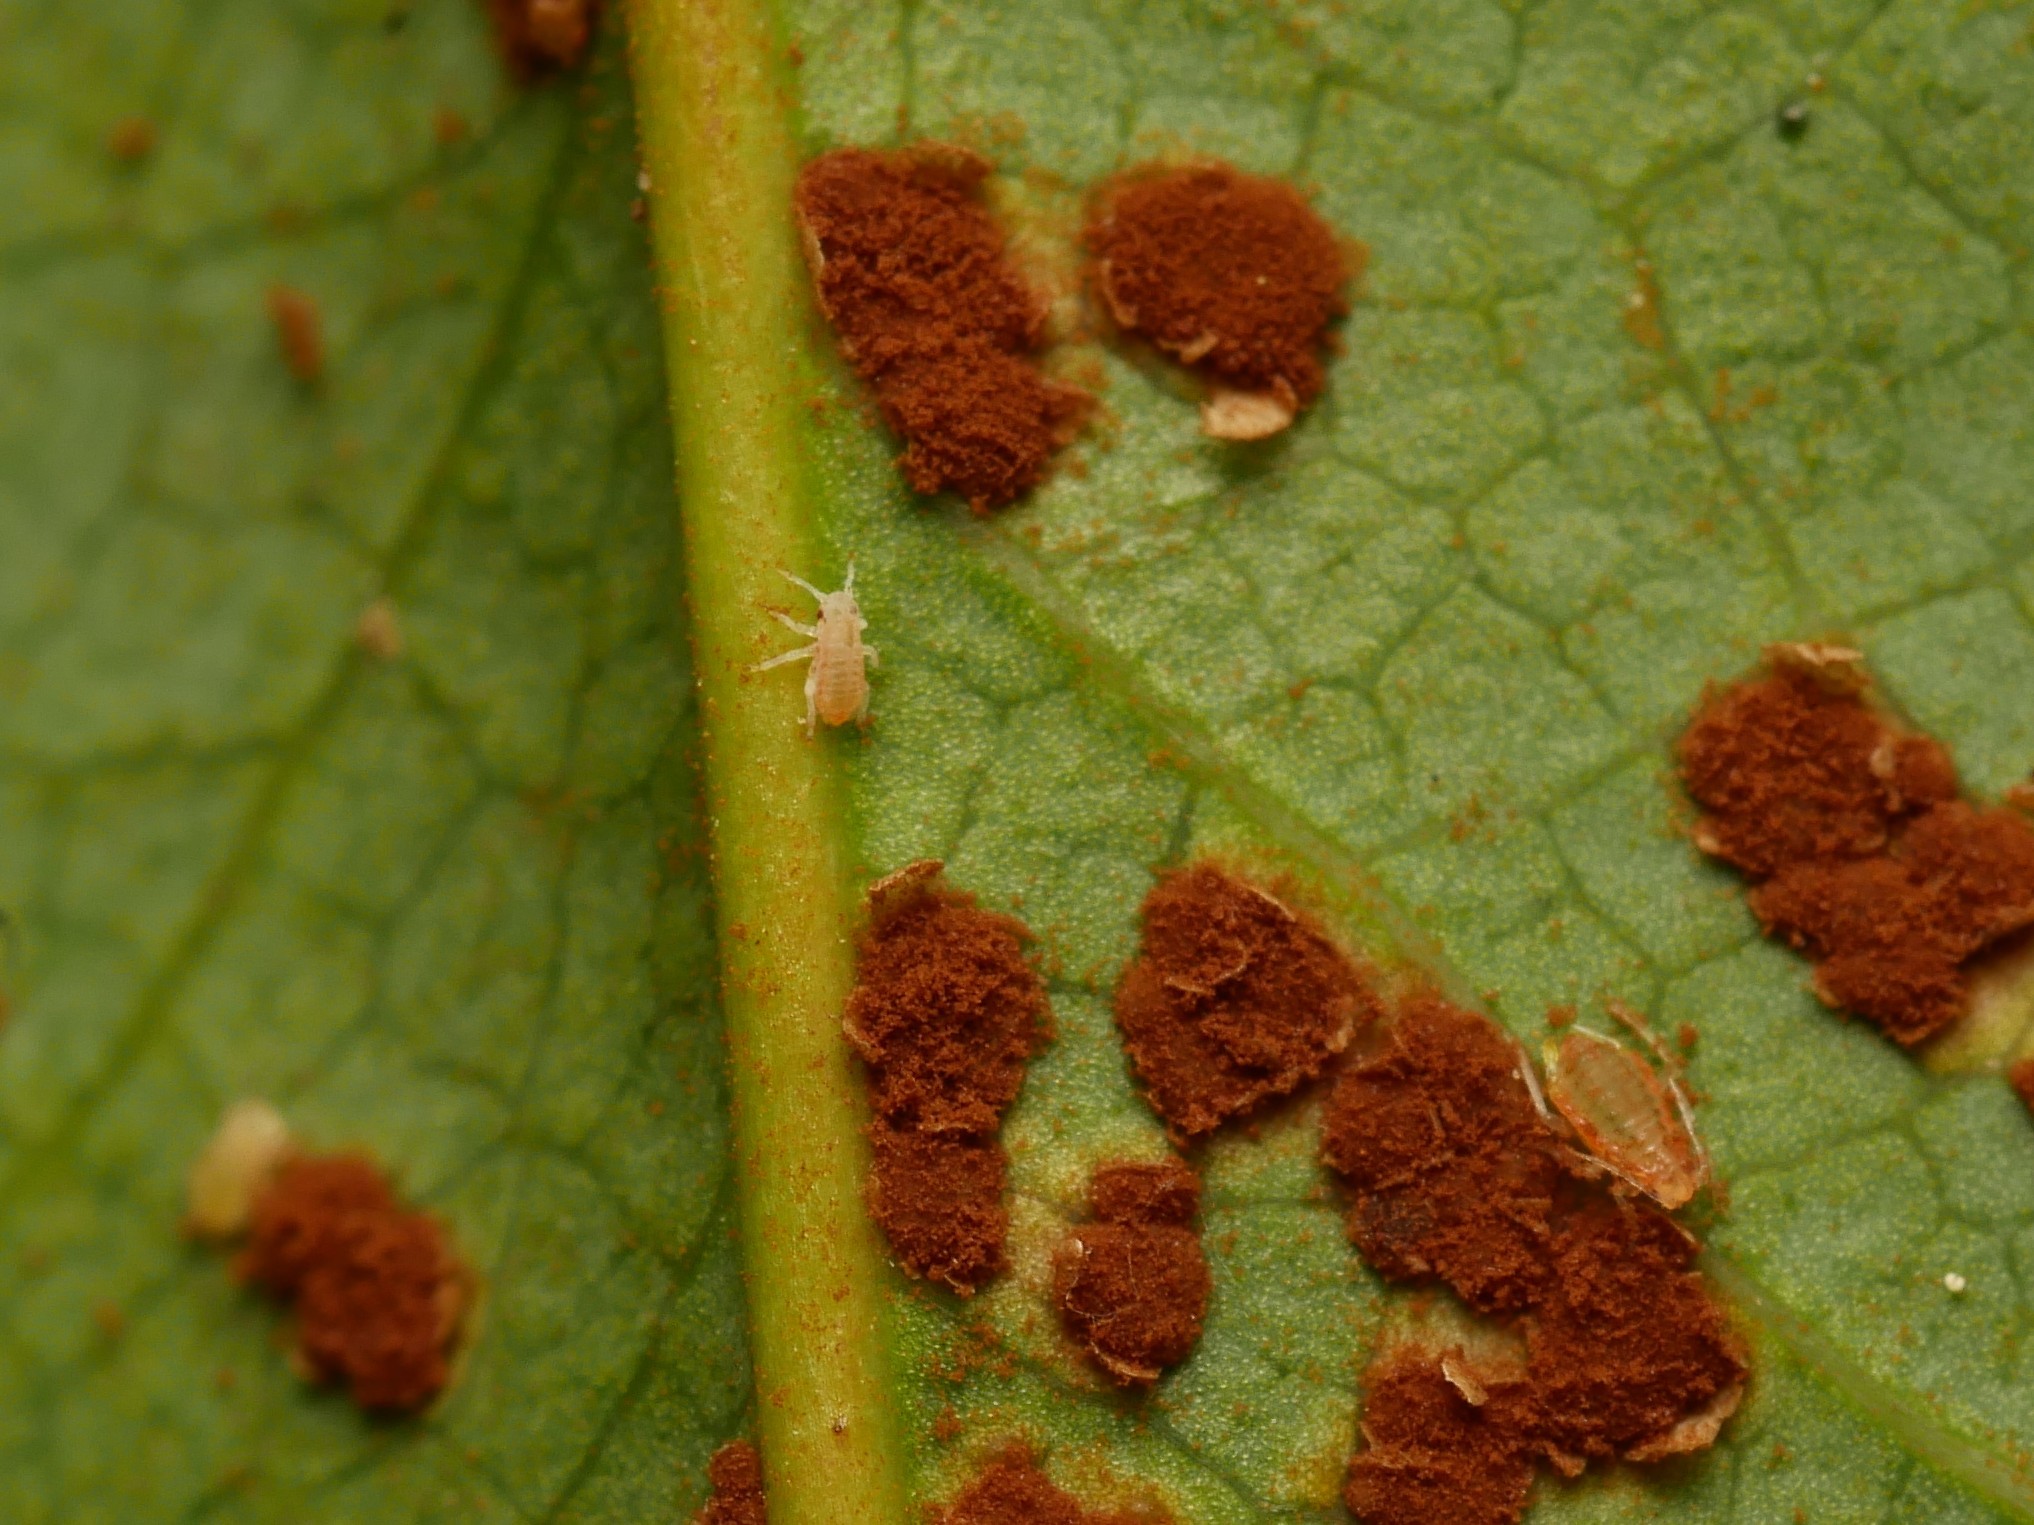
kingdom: Animalia
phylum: Arthropoda
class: Insecta
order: Hemiptera
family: Aphididae
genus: Liosomaphis
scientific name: Liosomaphis berberidis
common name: Barberry aphid
